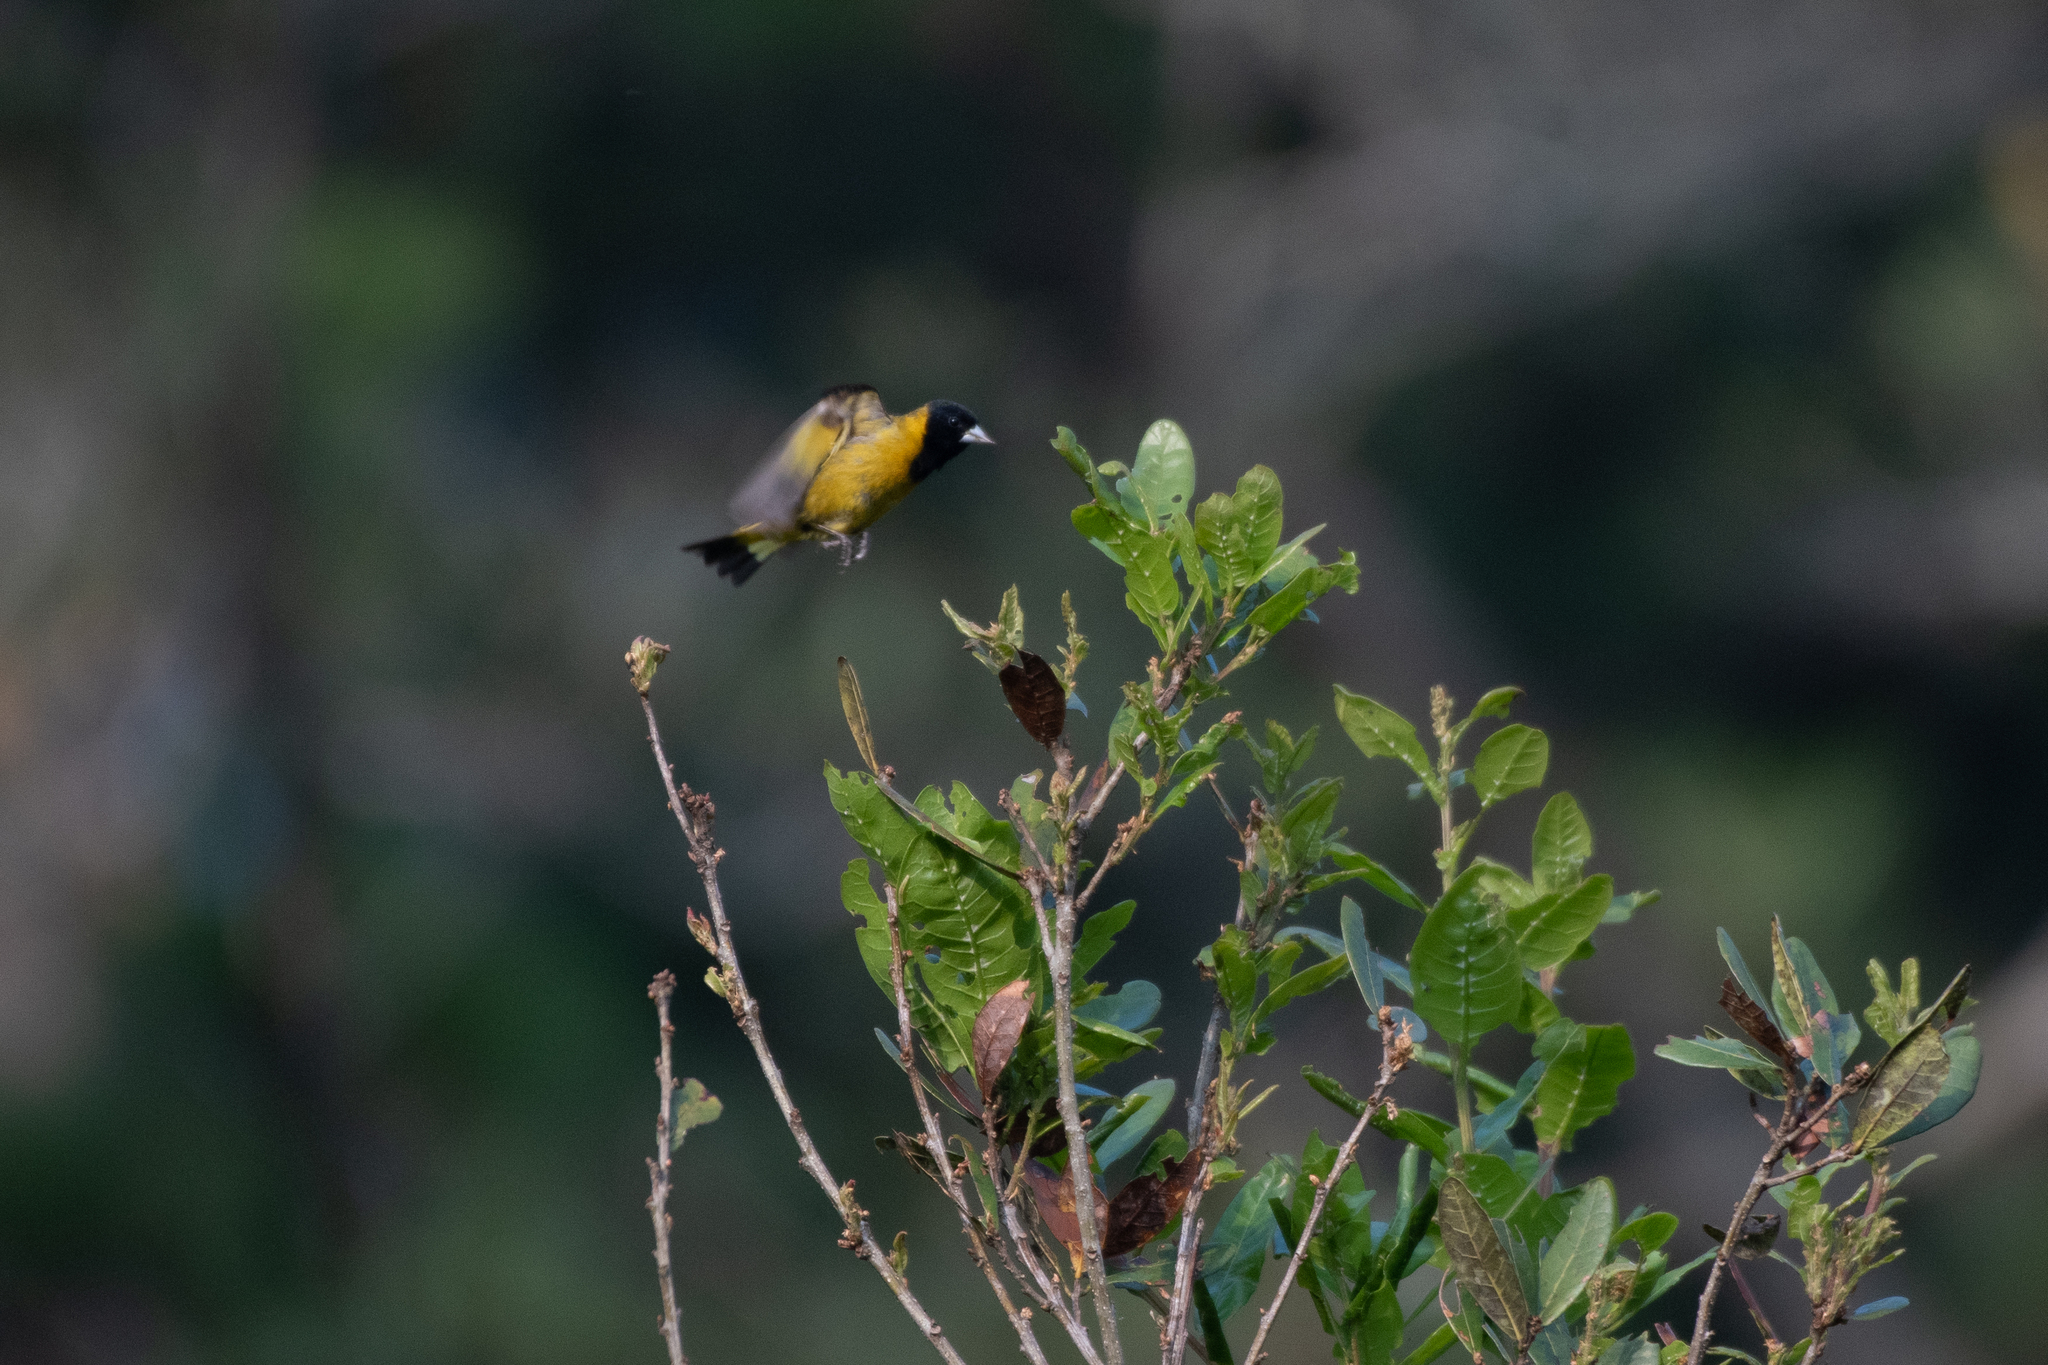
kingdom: Animalia
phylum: Chordata
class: Aves
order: Passeriformes
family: Fringillidae
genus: Spinus
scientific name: Spinus notatus
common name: Black-headed siskin
